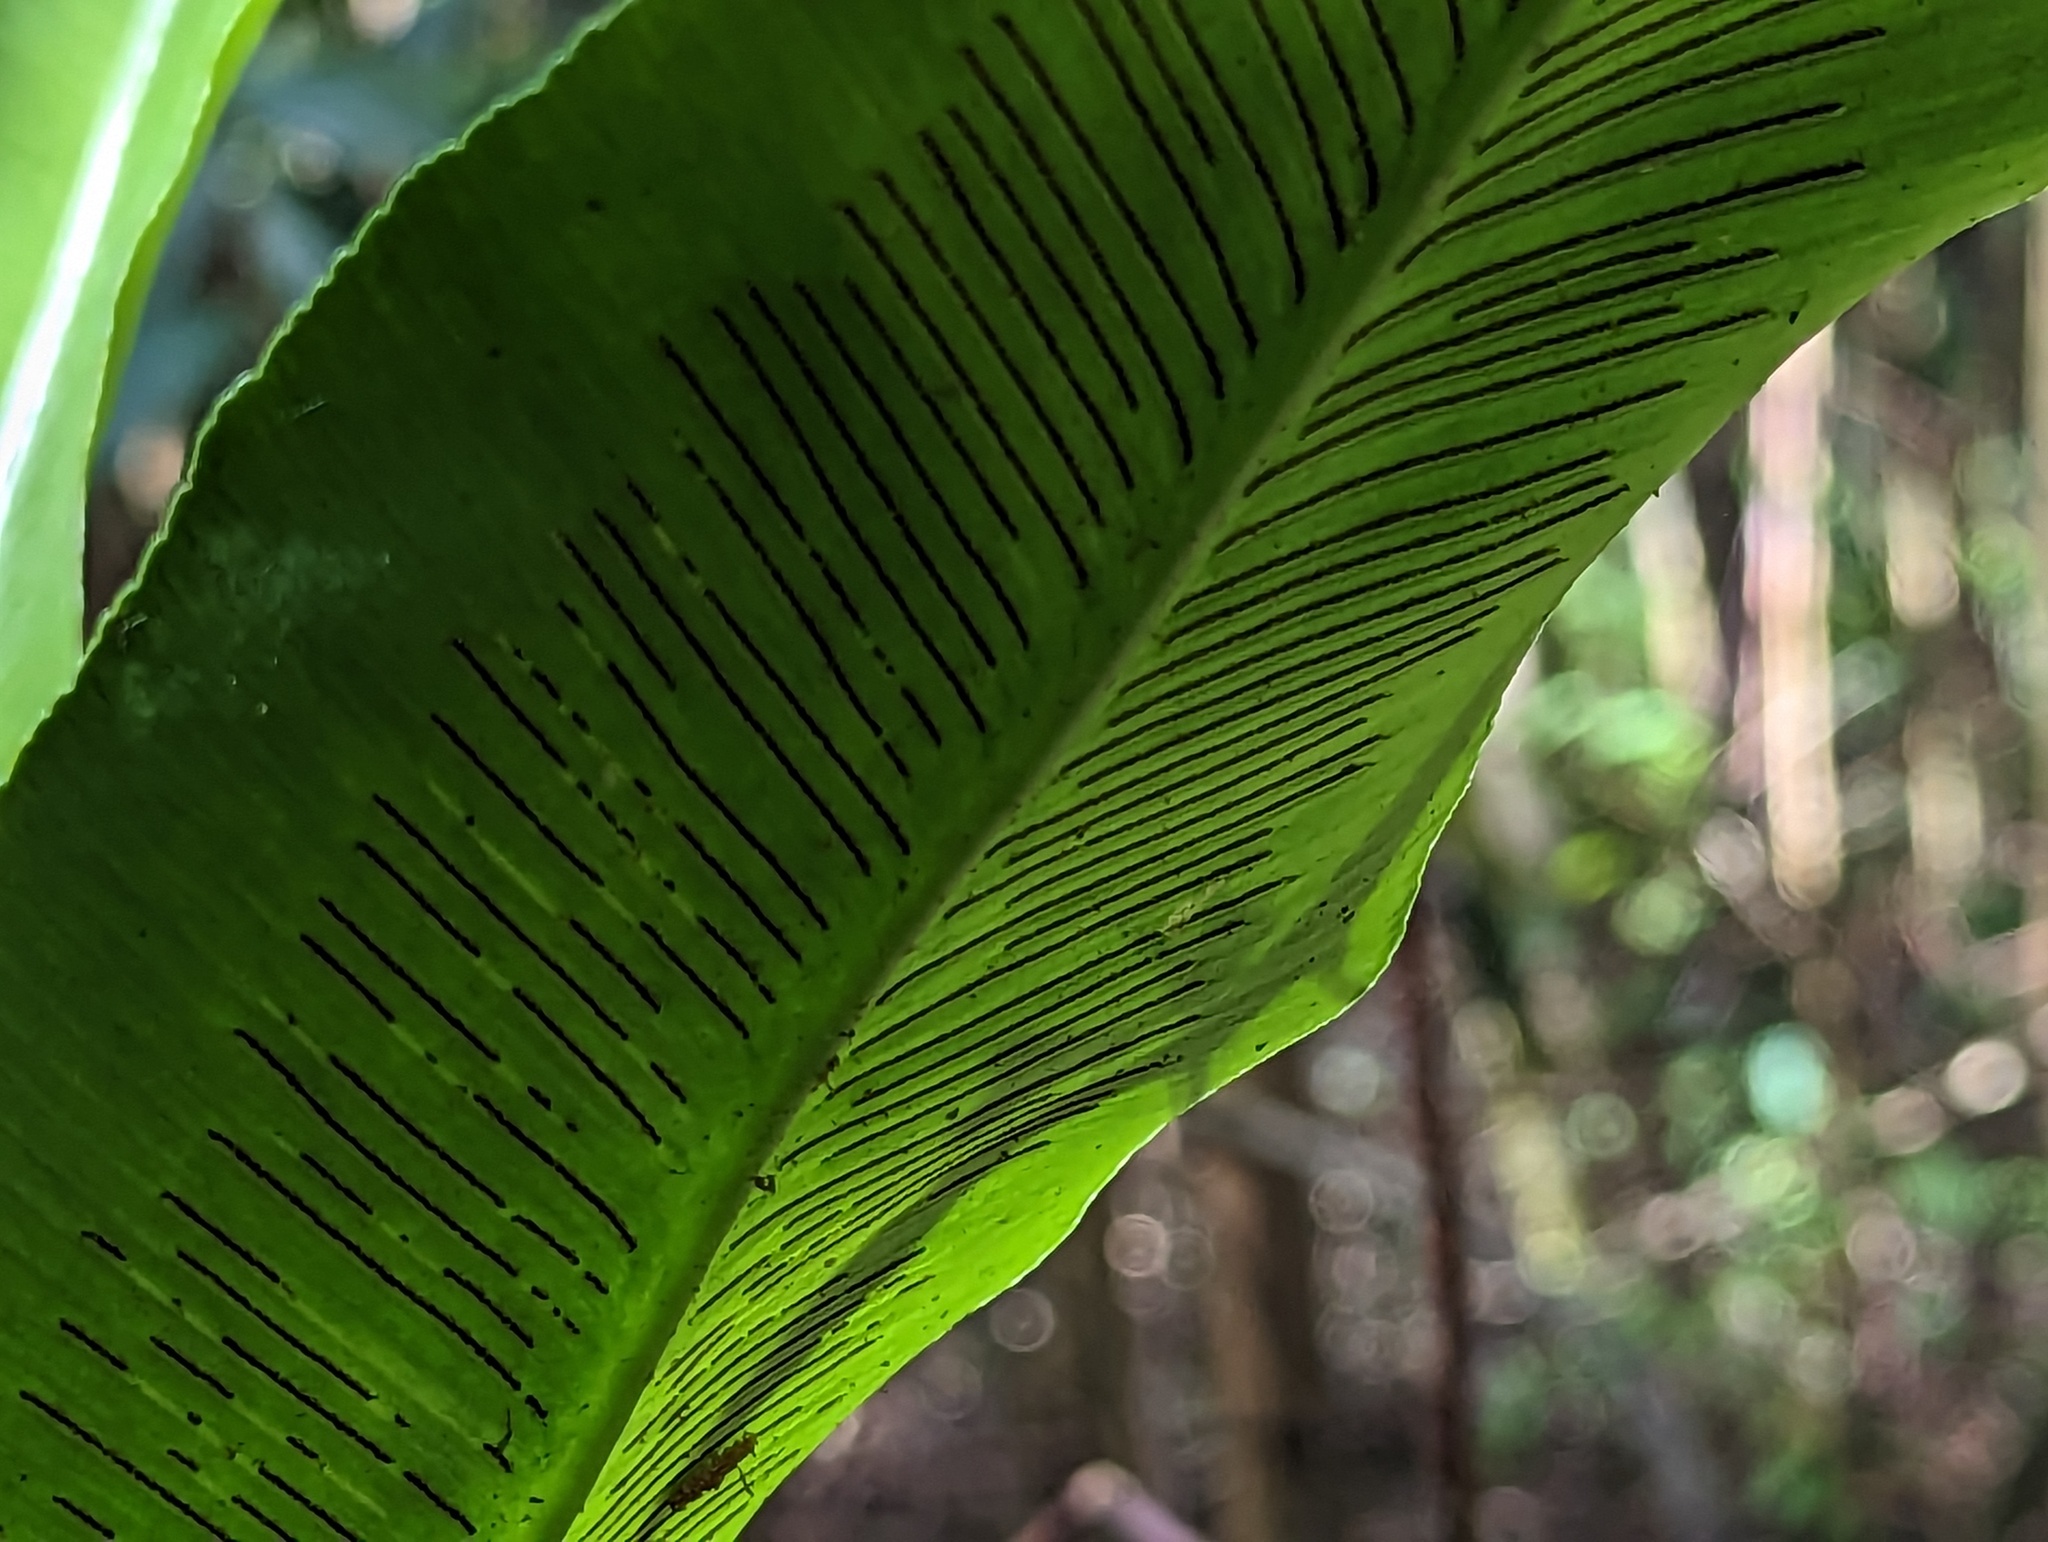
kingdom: Plantae
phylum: Tracheophyta
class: Polypodiopsida
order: Polypodiales
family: Aspleniaceae
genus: Asplenium
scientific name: Asplenium serratum
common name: Wild birdnest fern
